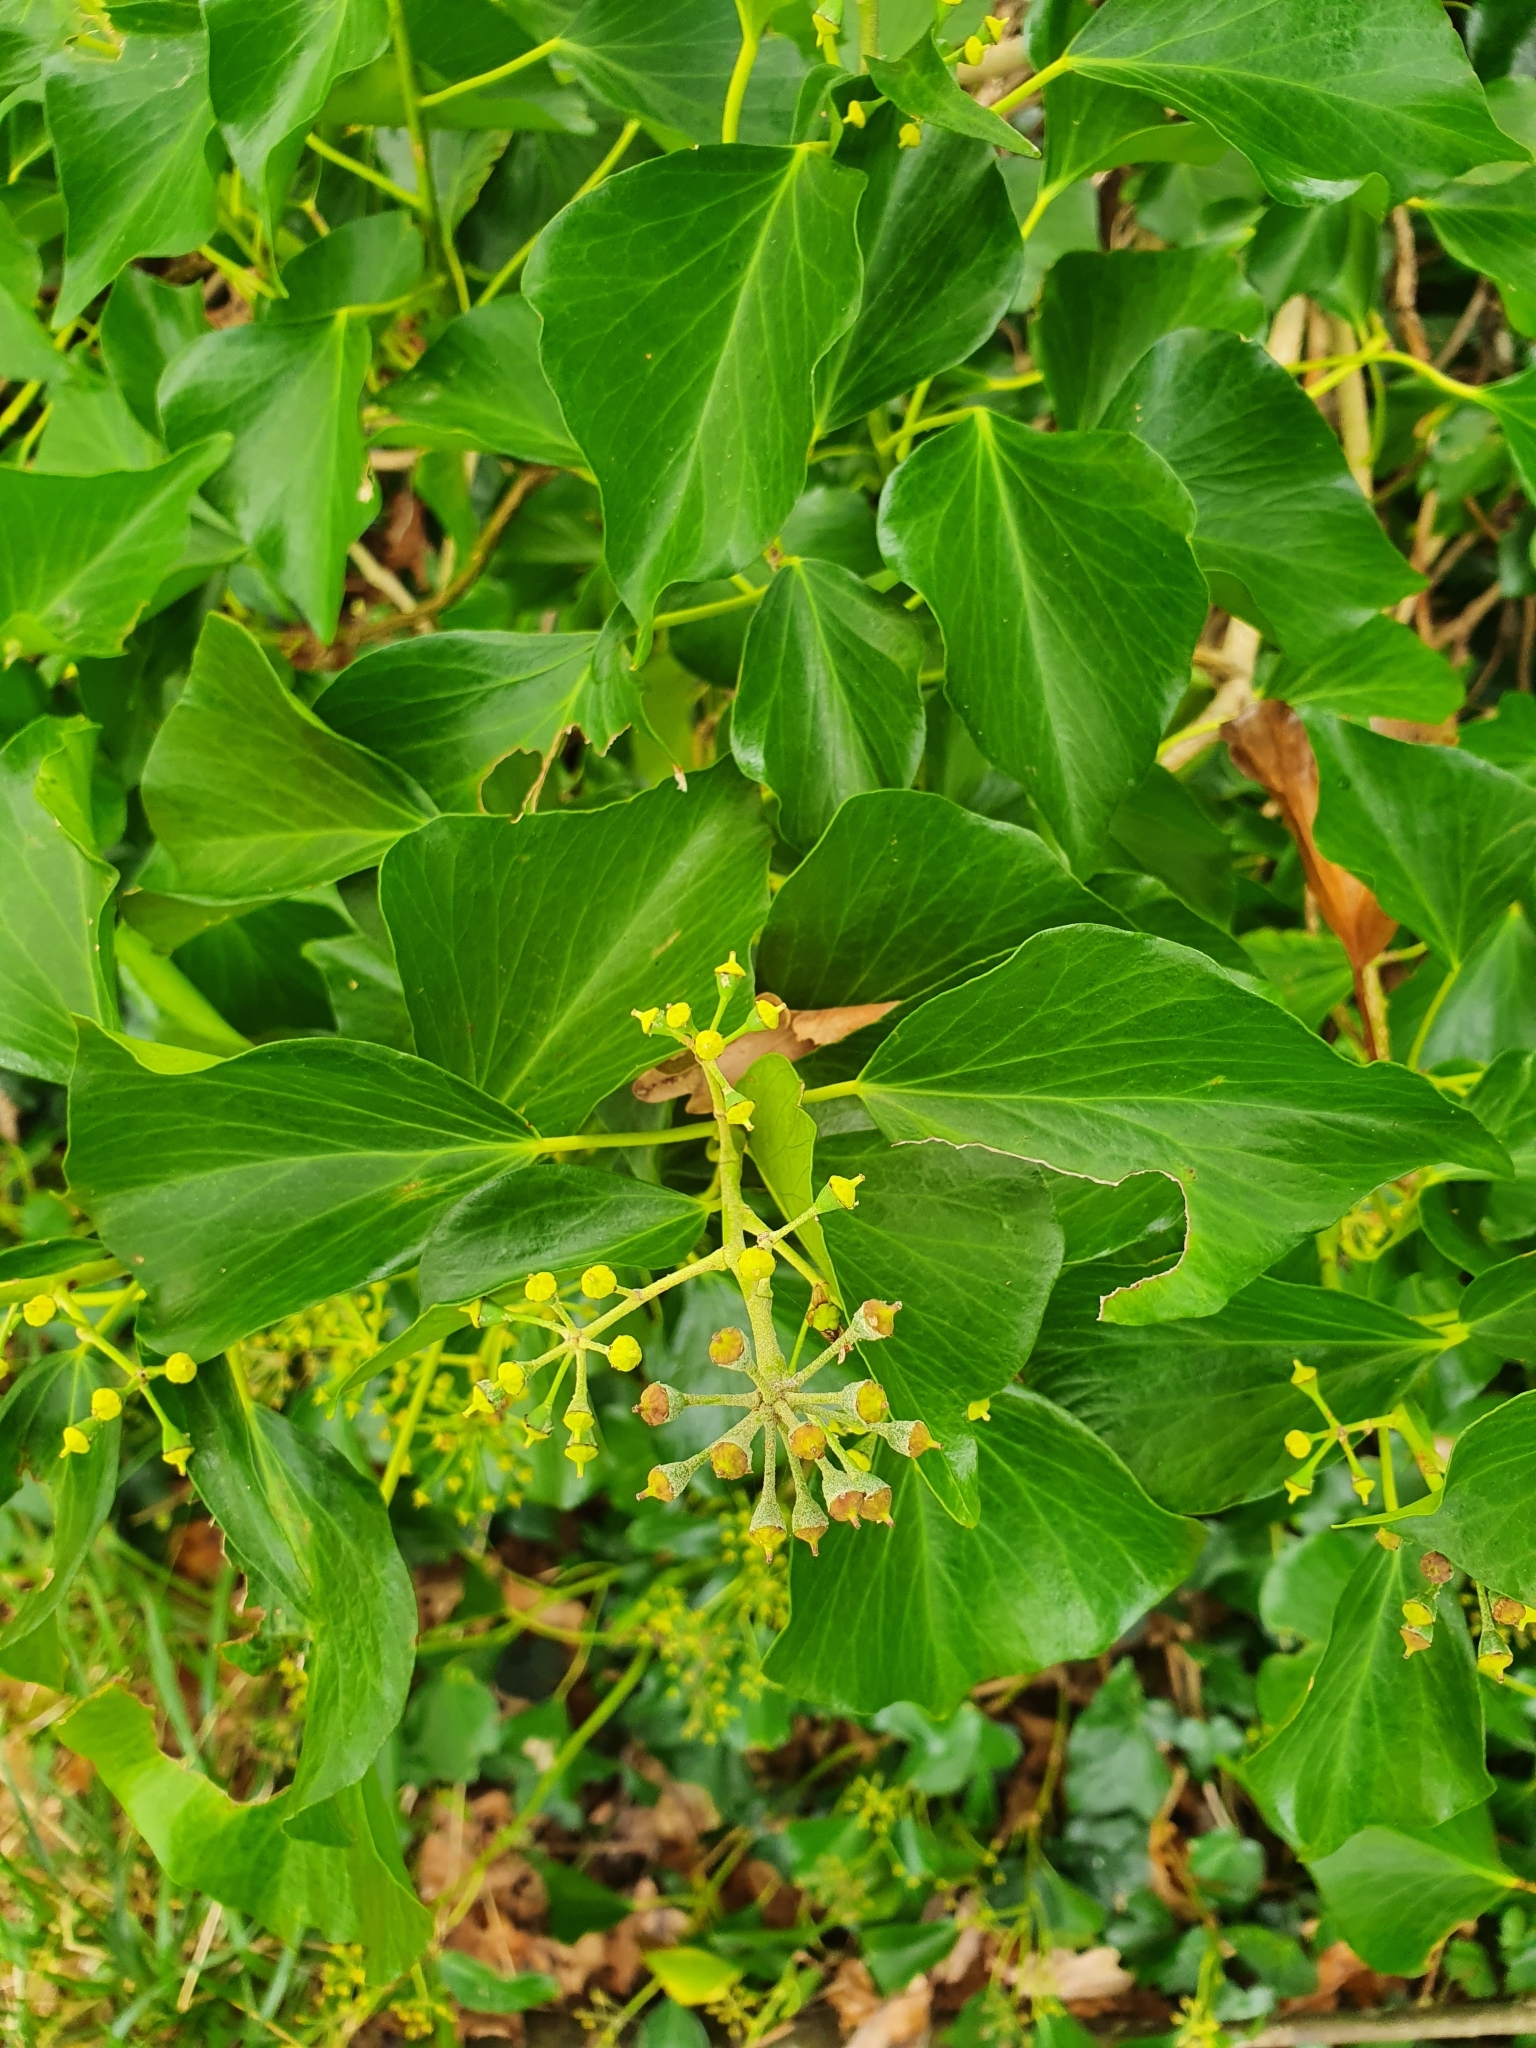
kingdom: Plantae
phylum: Tracheophyta
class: Magnoliopsida
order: Apiales
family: Araliaceae
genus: Hedera
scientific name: Hedera canariensis
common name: Madeira ivy
